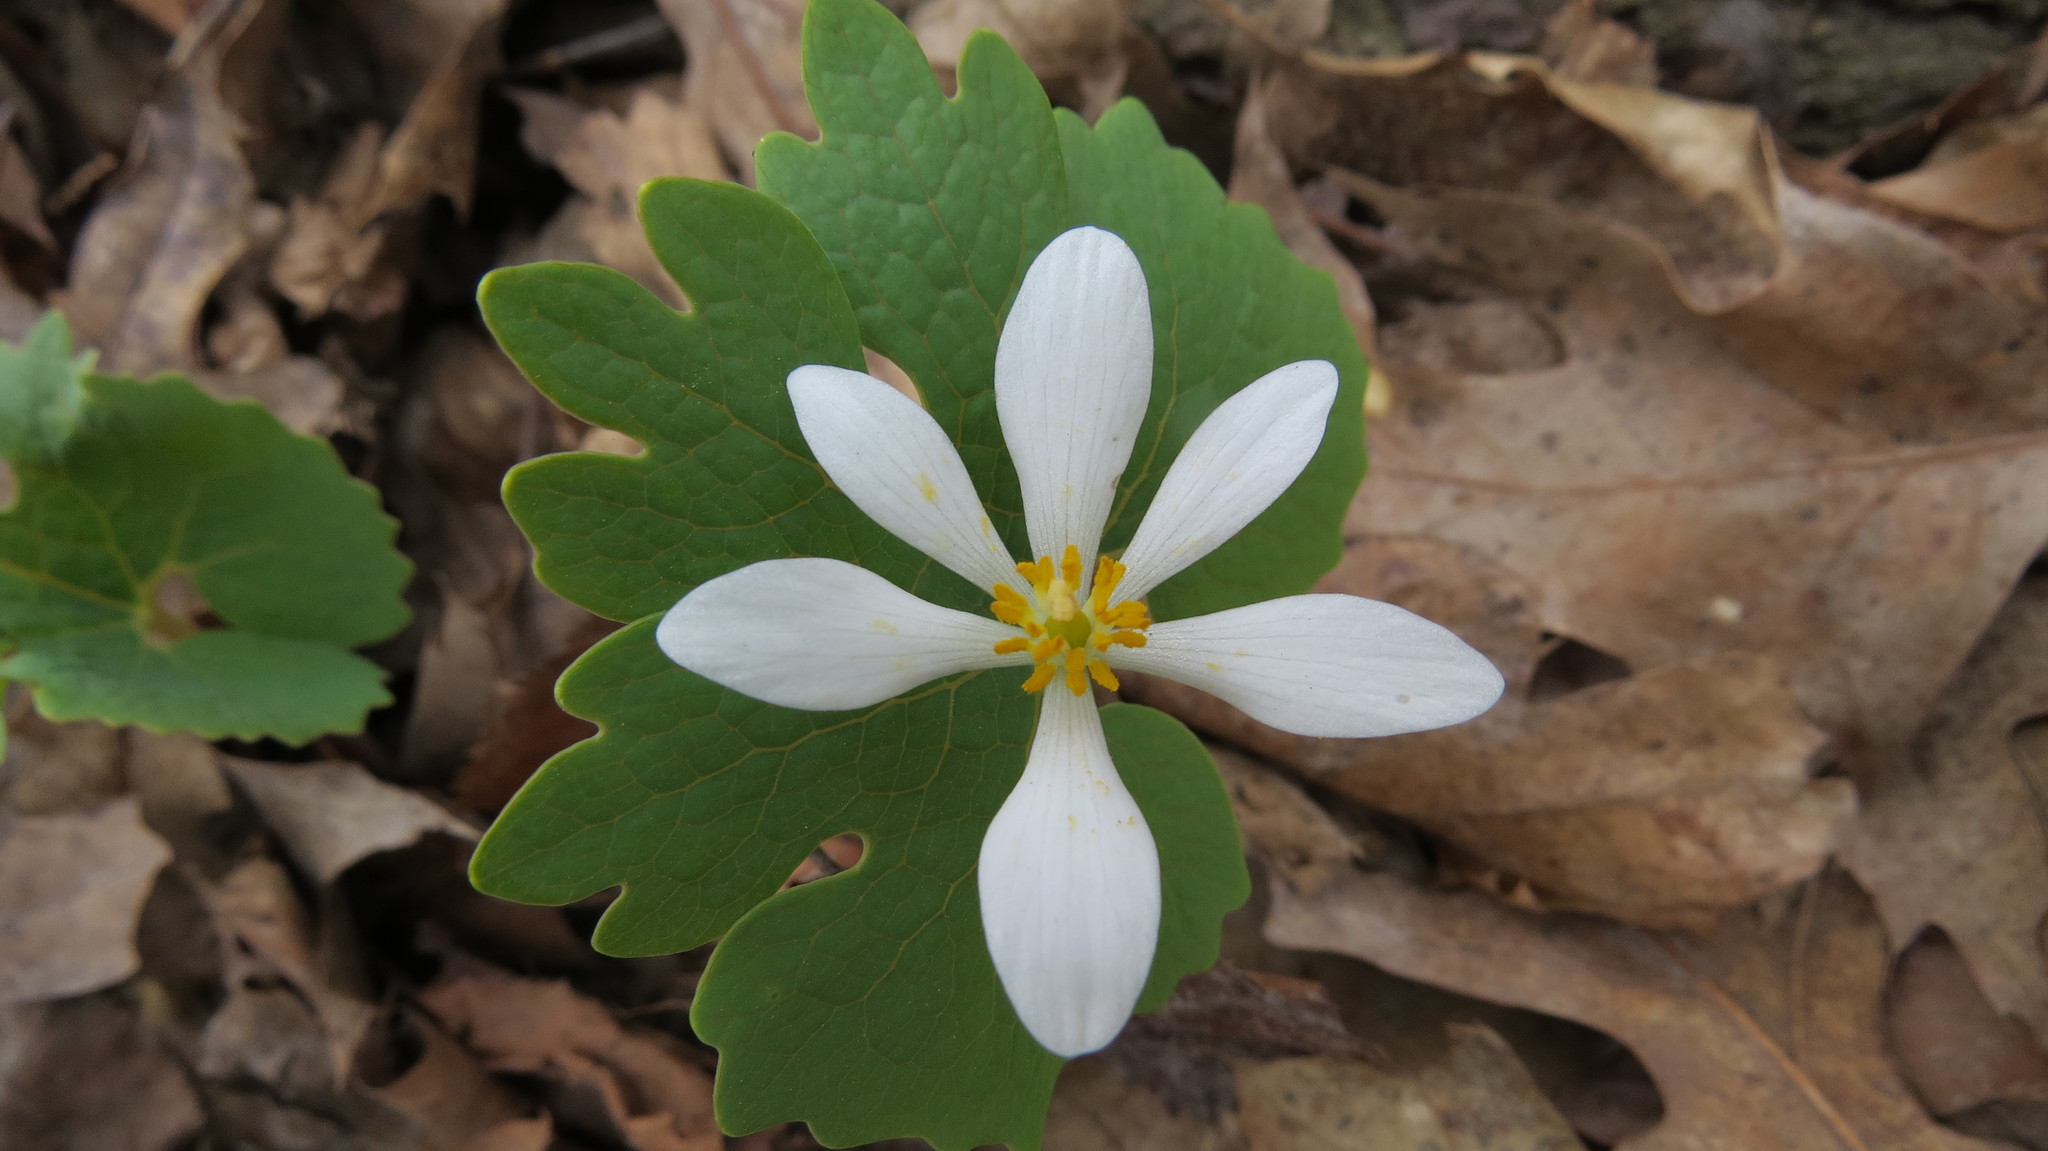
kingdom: Plantae
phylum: Tracheophyta
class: Magnoliopsida
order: Ranunculales
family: Papaveraceae
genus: Sanguinaria
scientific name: Sanguinaria canadensis
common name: Bloodroot
